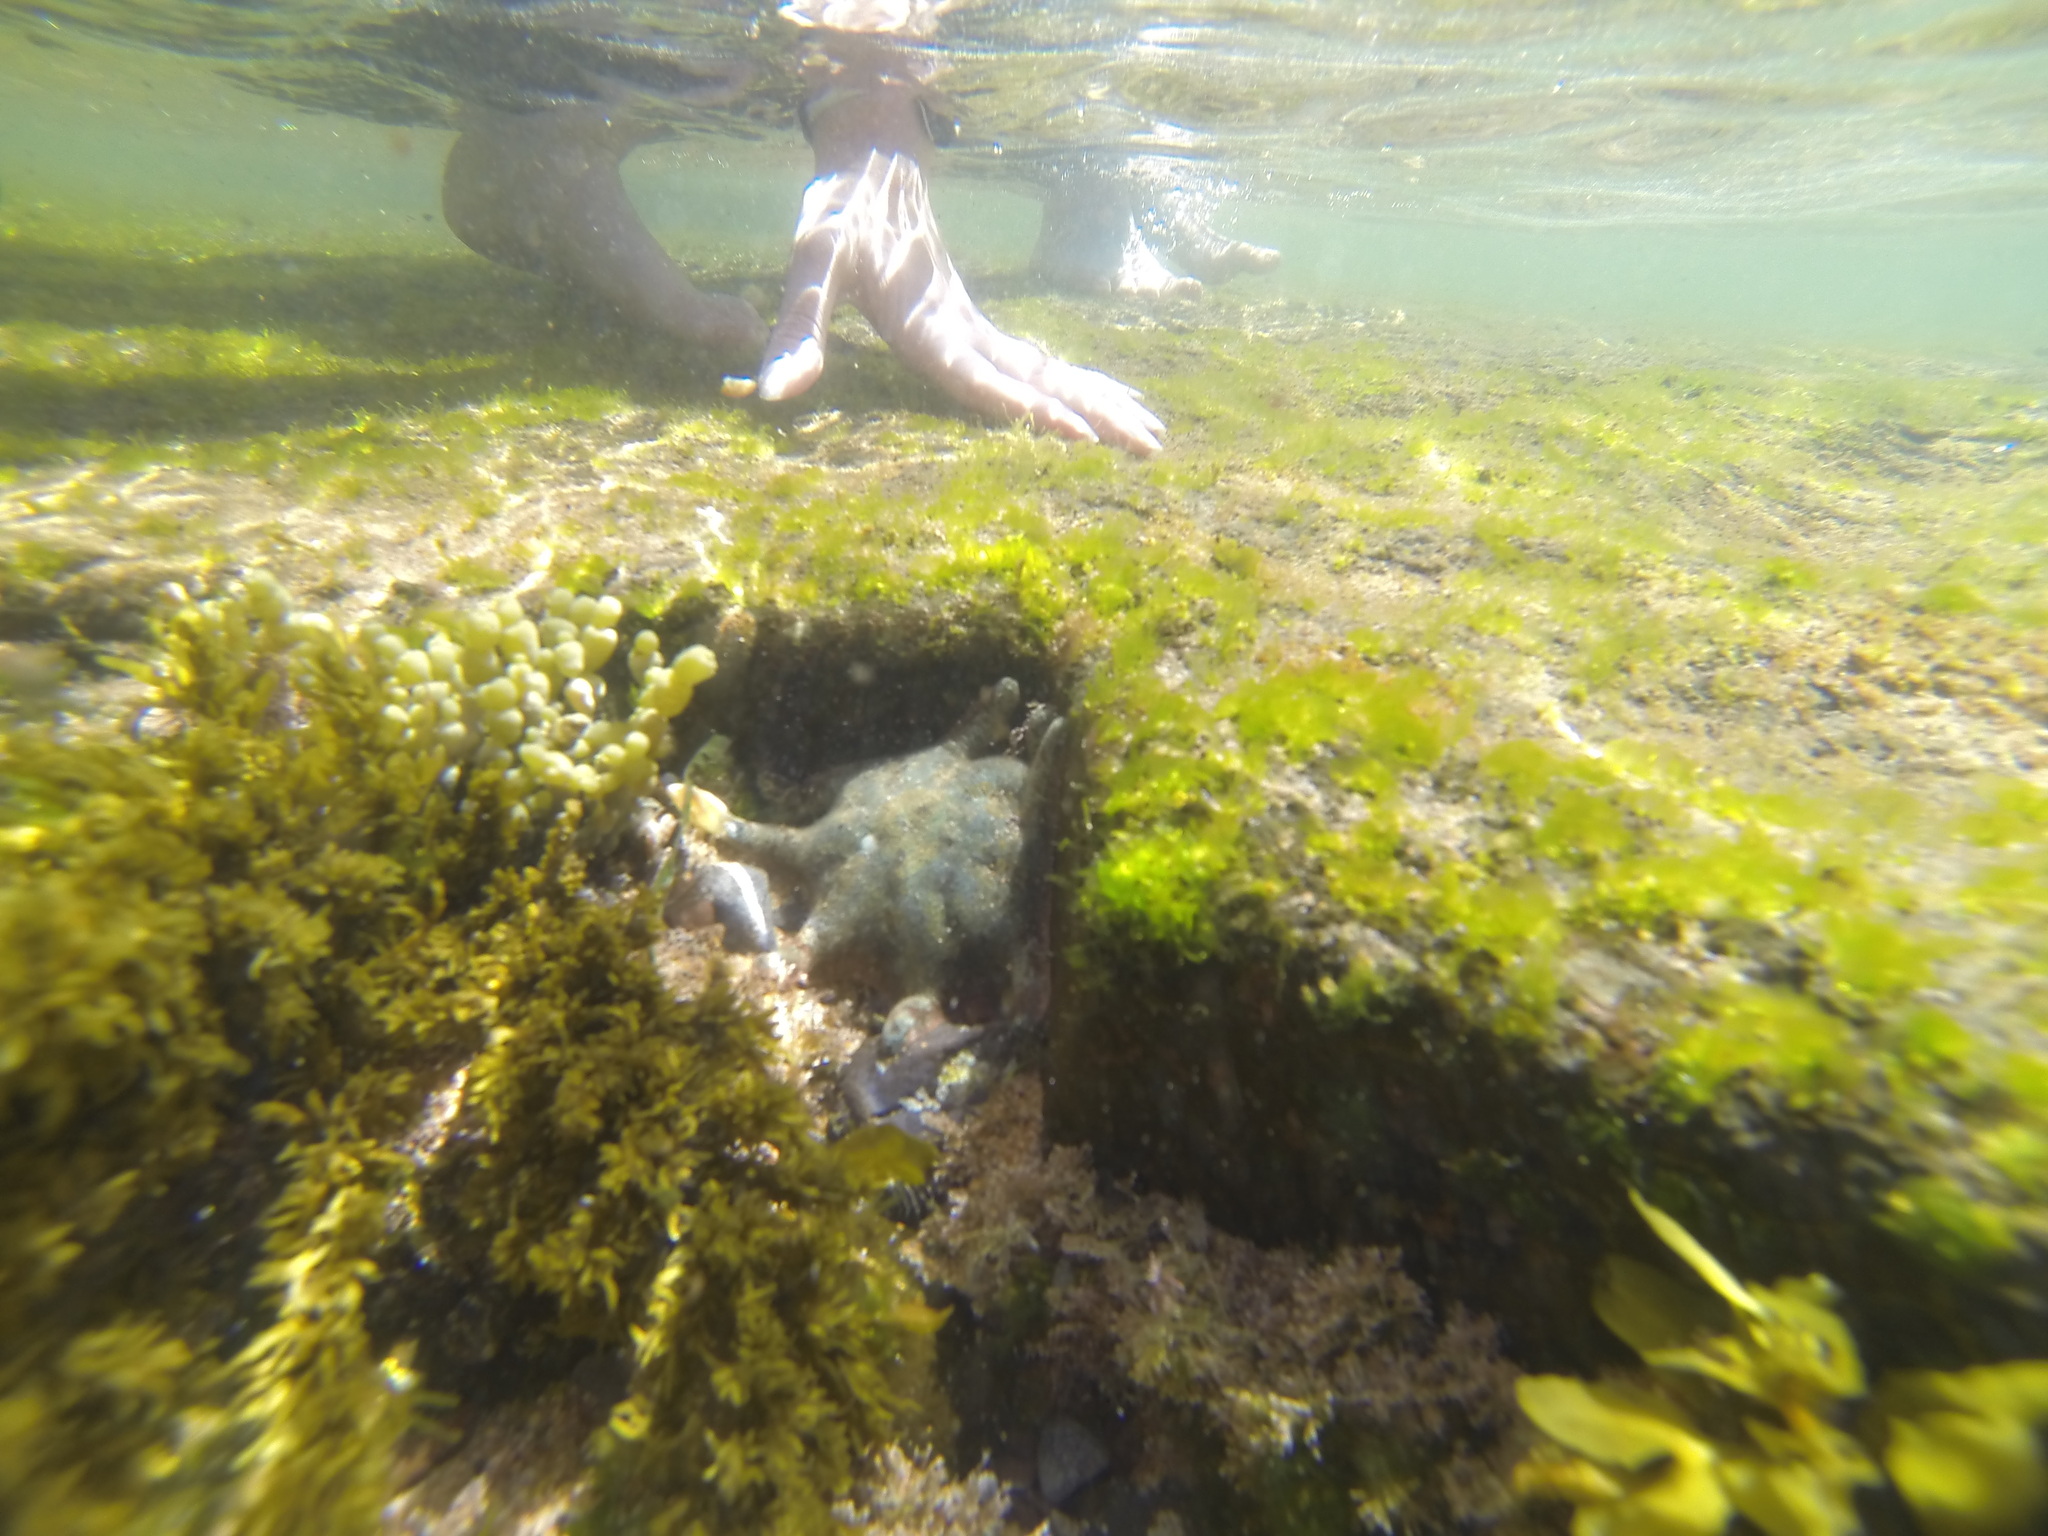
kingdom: Animalia
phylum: Echinodermata
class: Asteroidea
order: Valvatida
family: Asterinidae
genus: Meridiastra
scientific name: Meridiastra calcar
